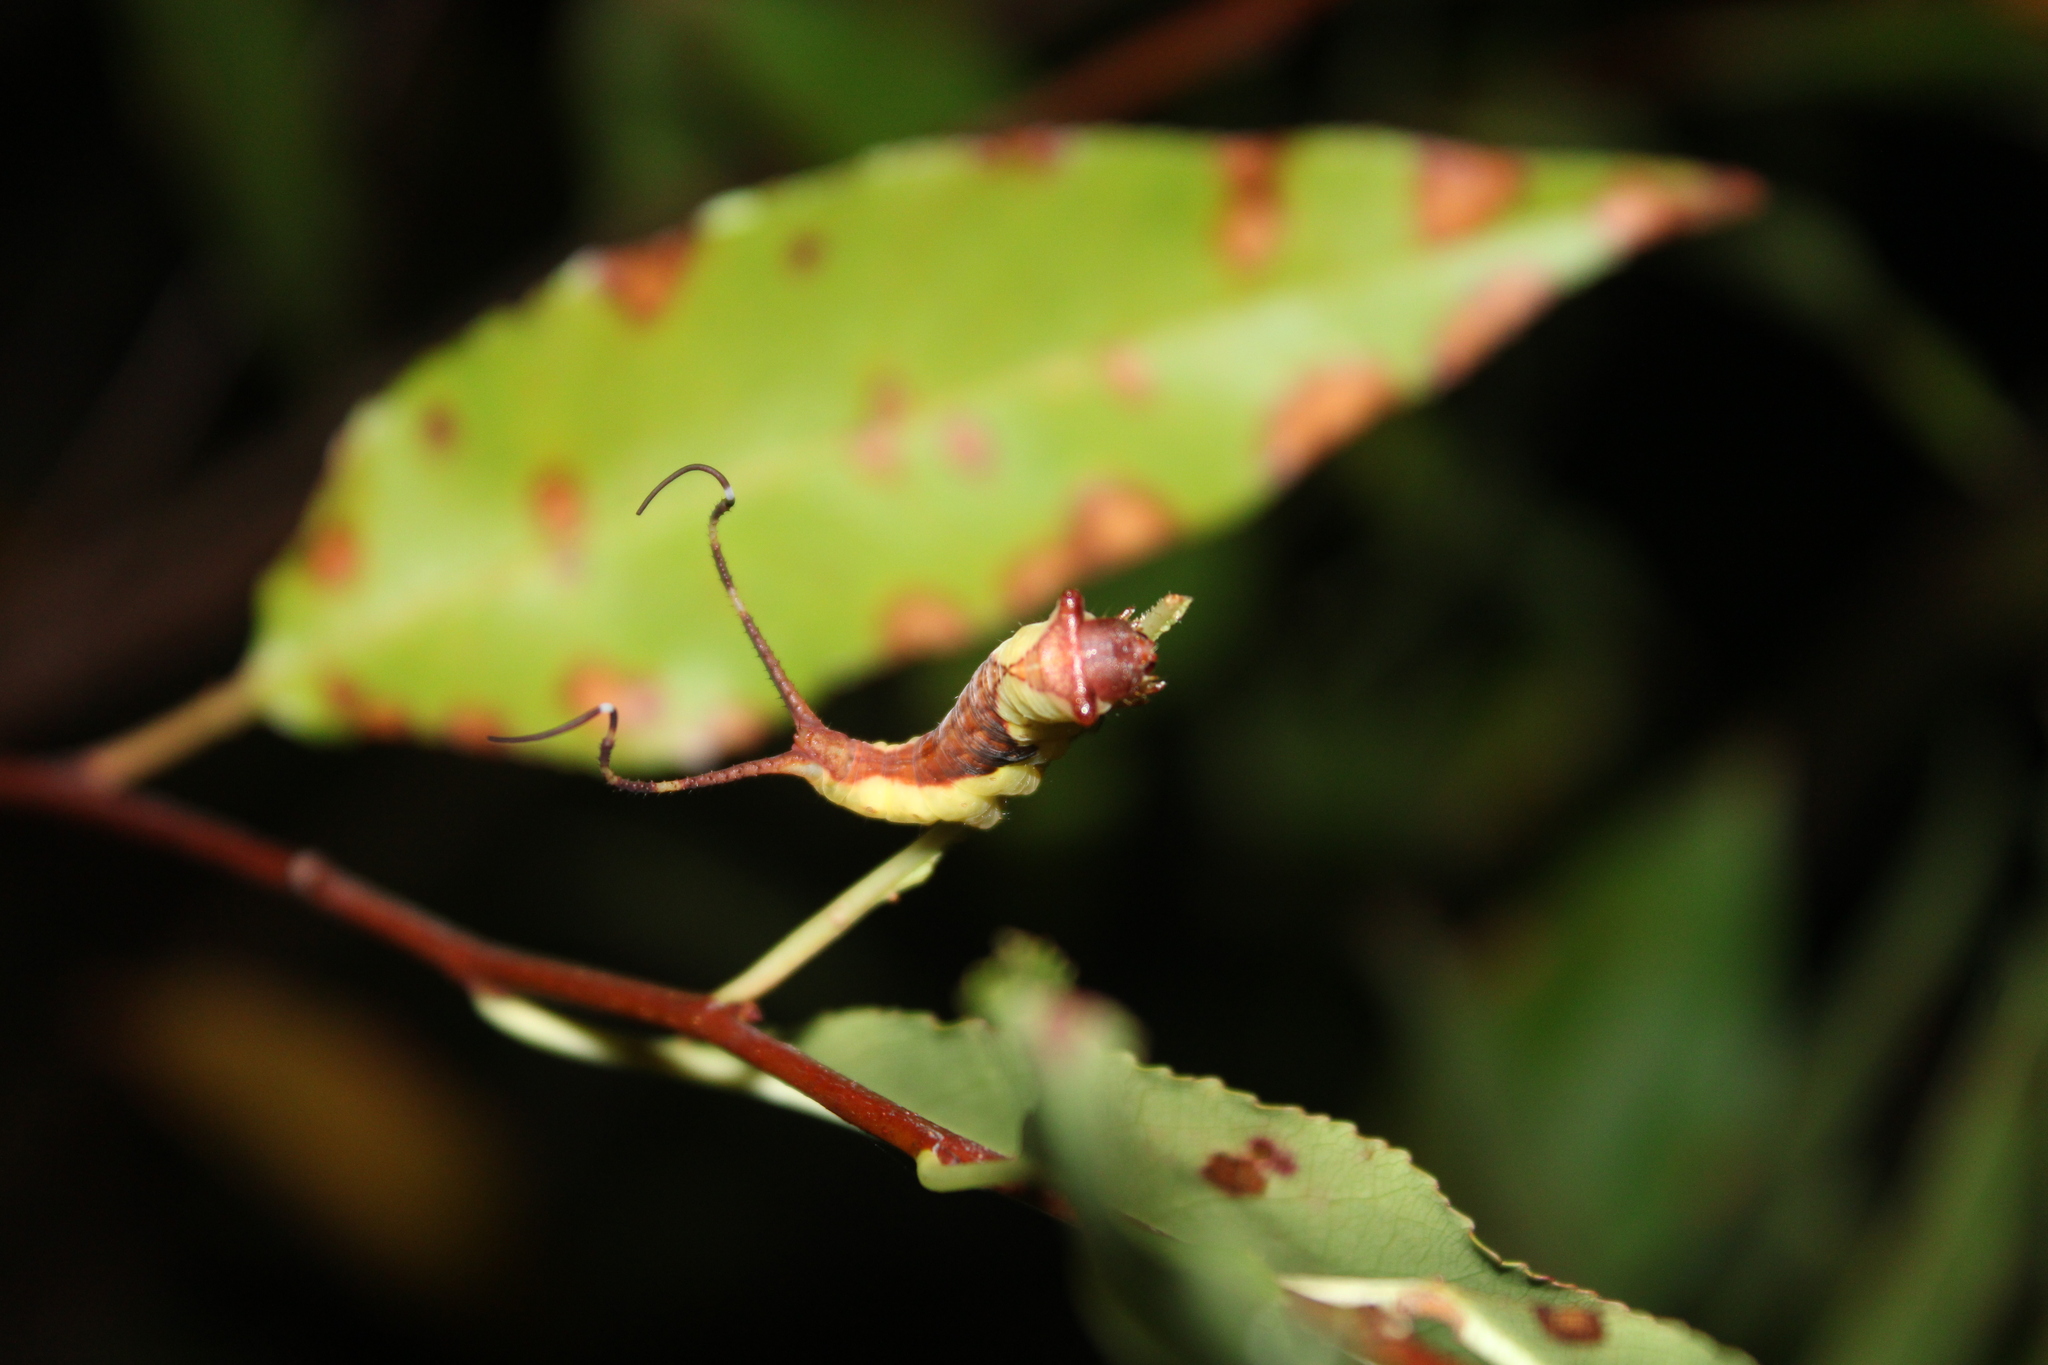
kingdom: Animalia
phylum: Arthropoda
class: Insecta
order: Lepidoptera
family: Notodontidae
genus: Furcula
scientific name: Furcula borealis
